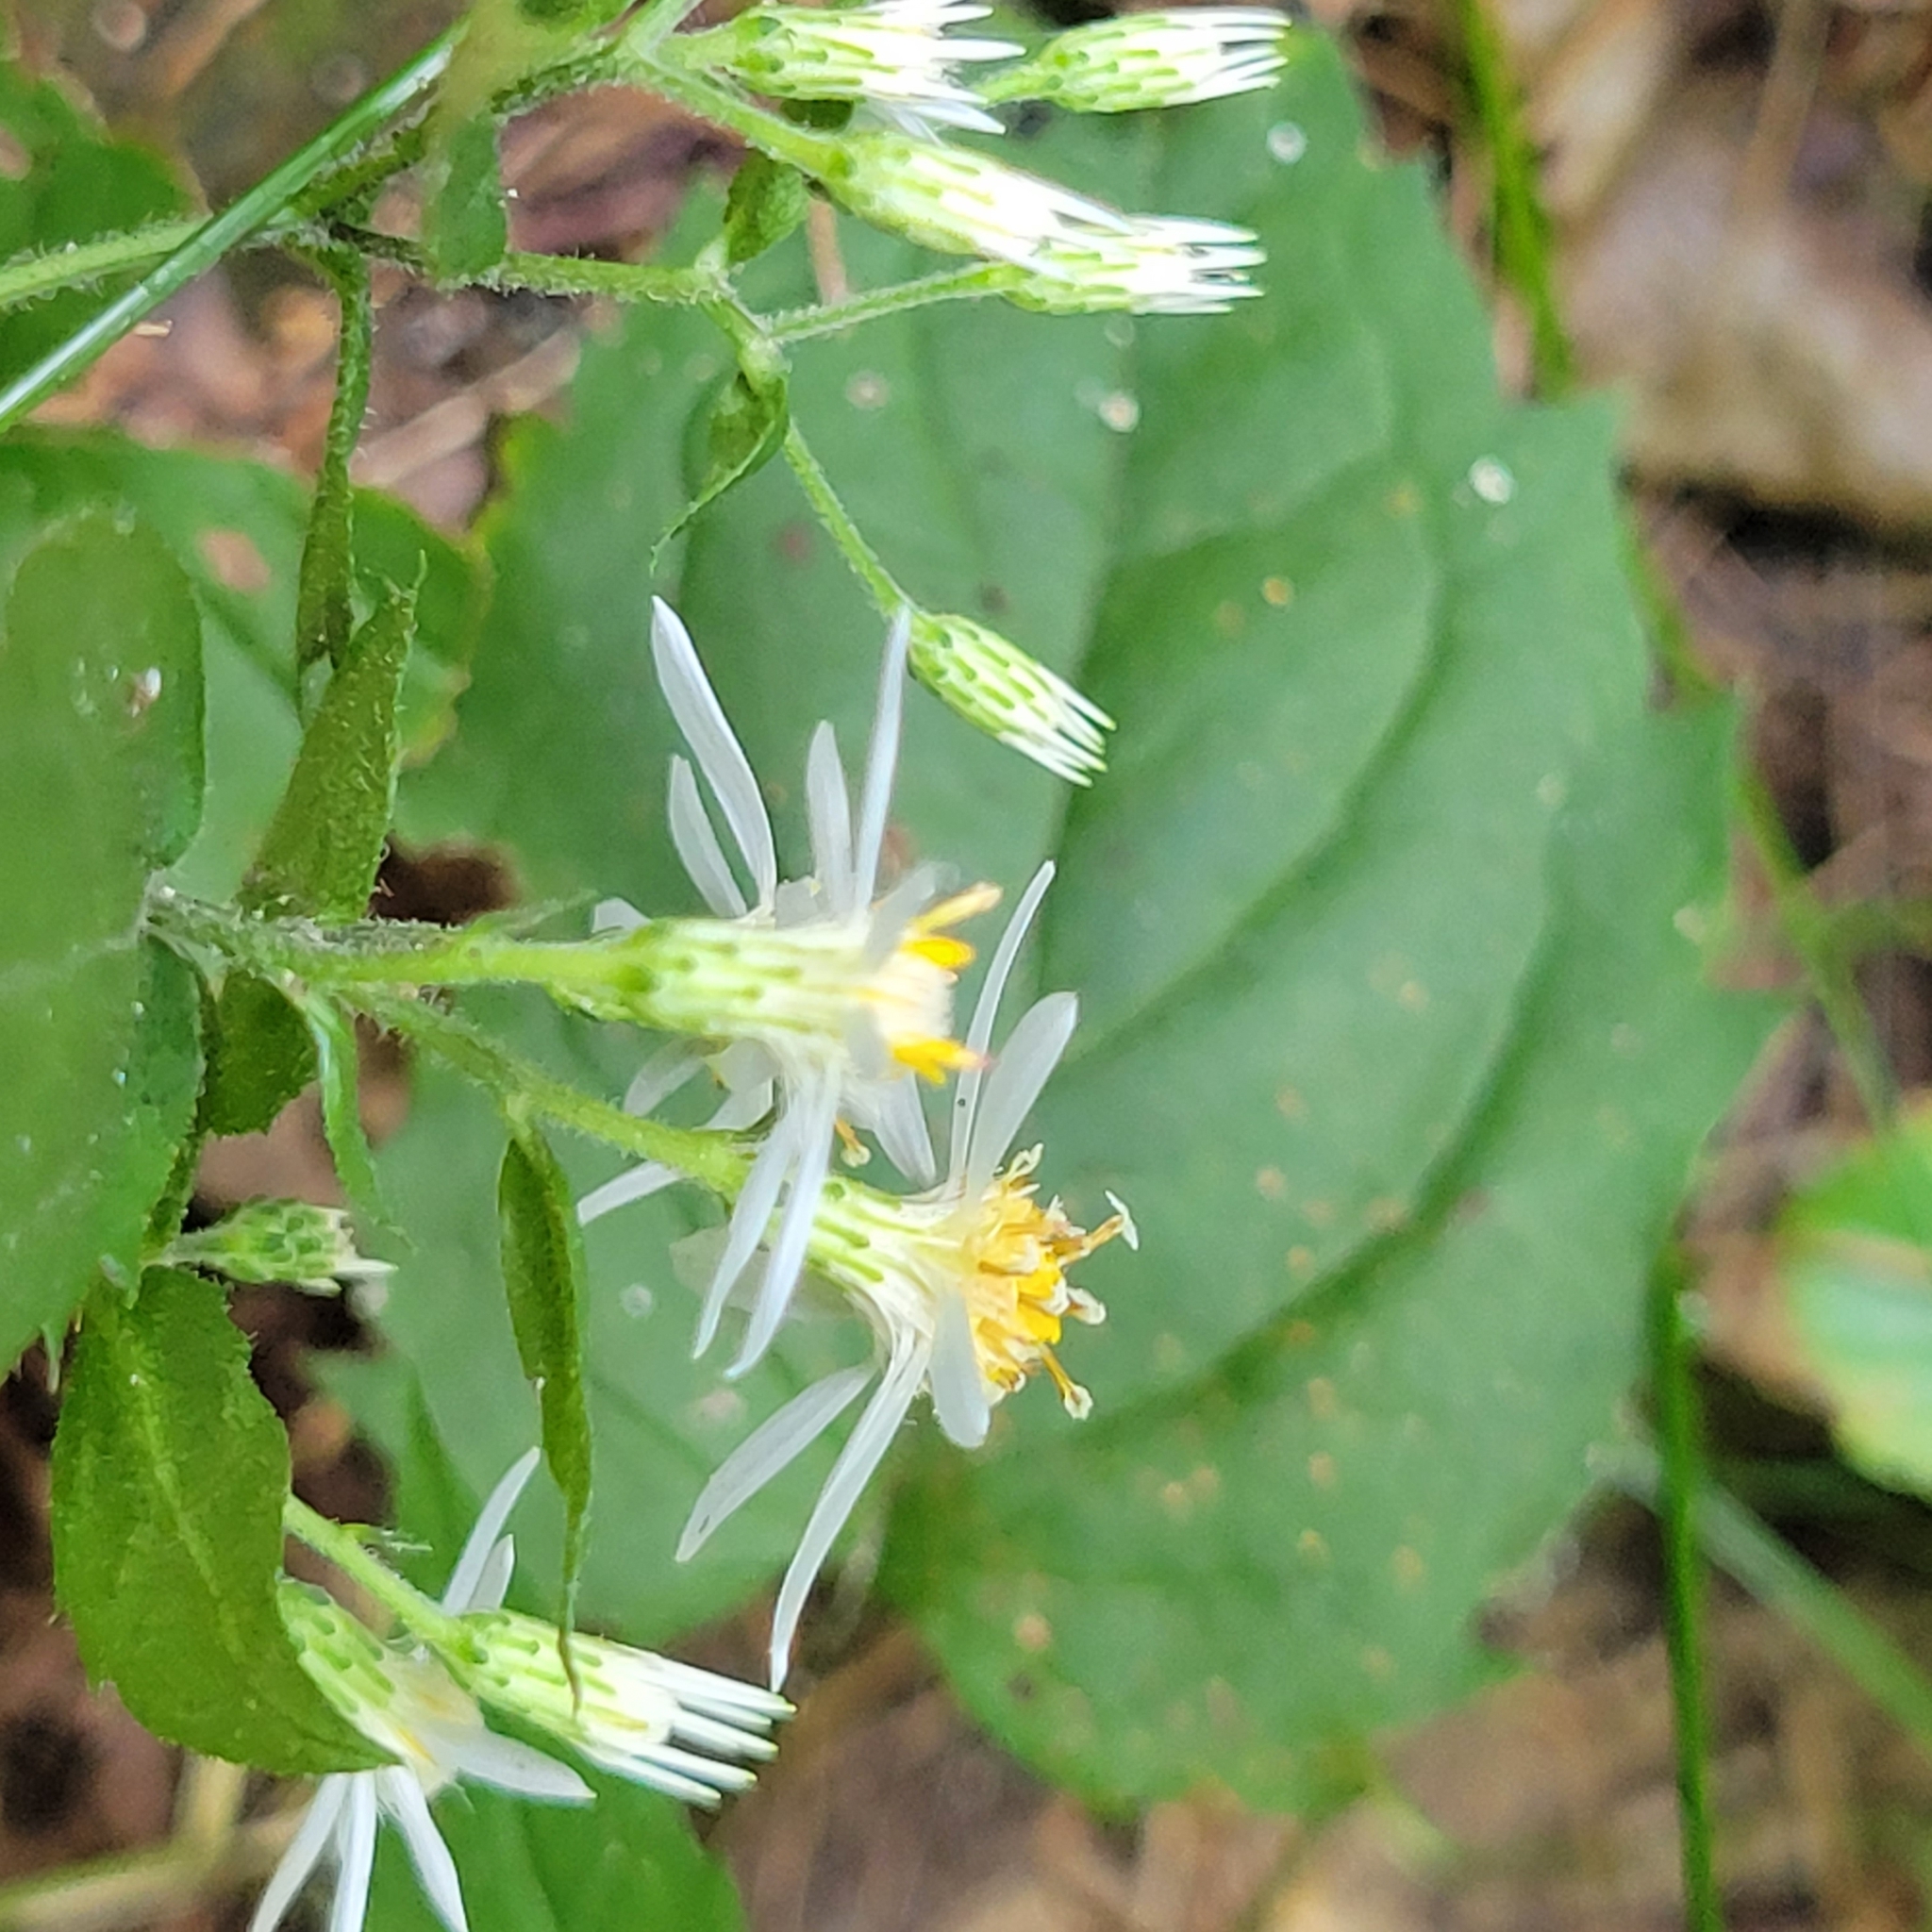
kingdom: Plantae
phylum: Tracheophyta
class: Magnoliopsida
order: Asterales
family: Asteraceae
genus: Eurybia
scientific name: Eurybia divaricata
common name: White wood aster
